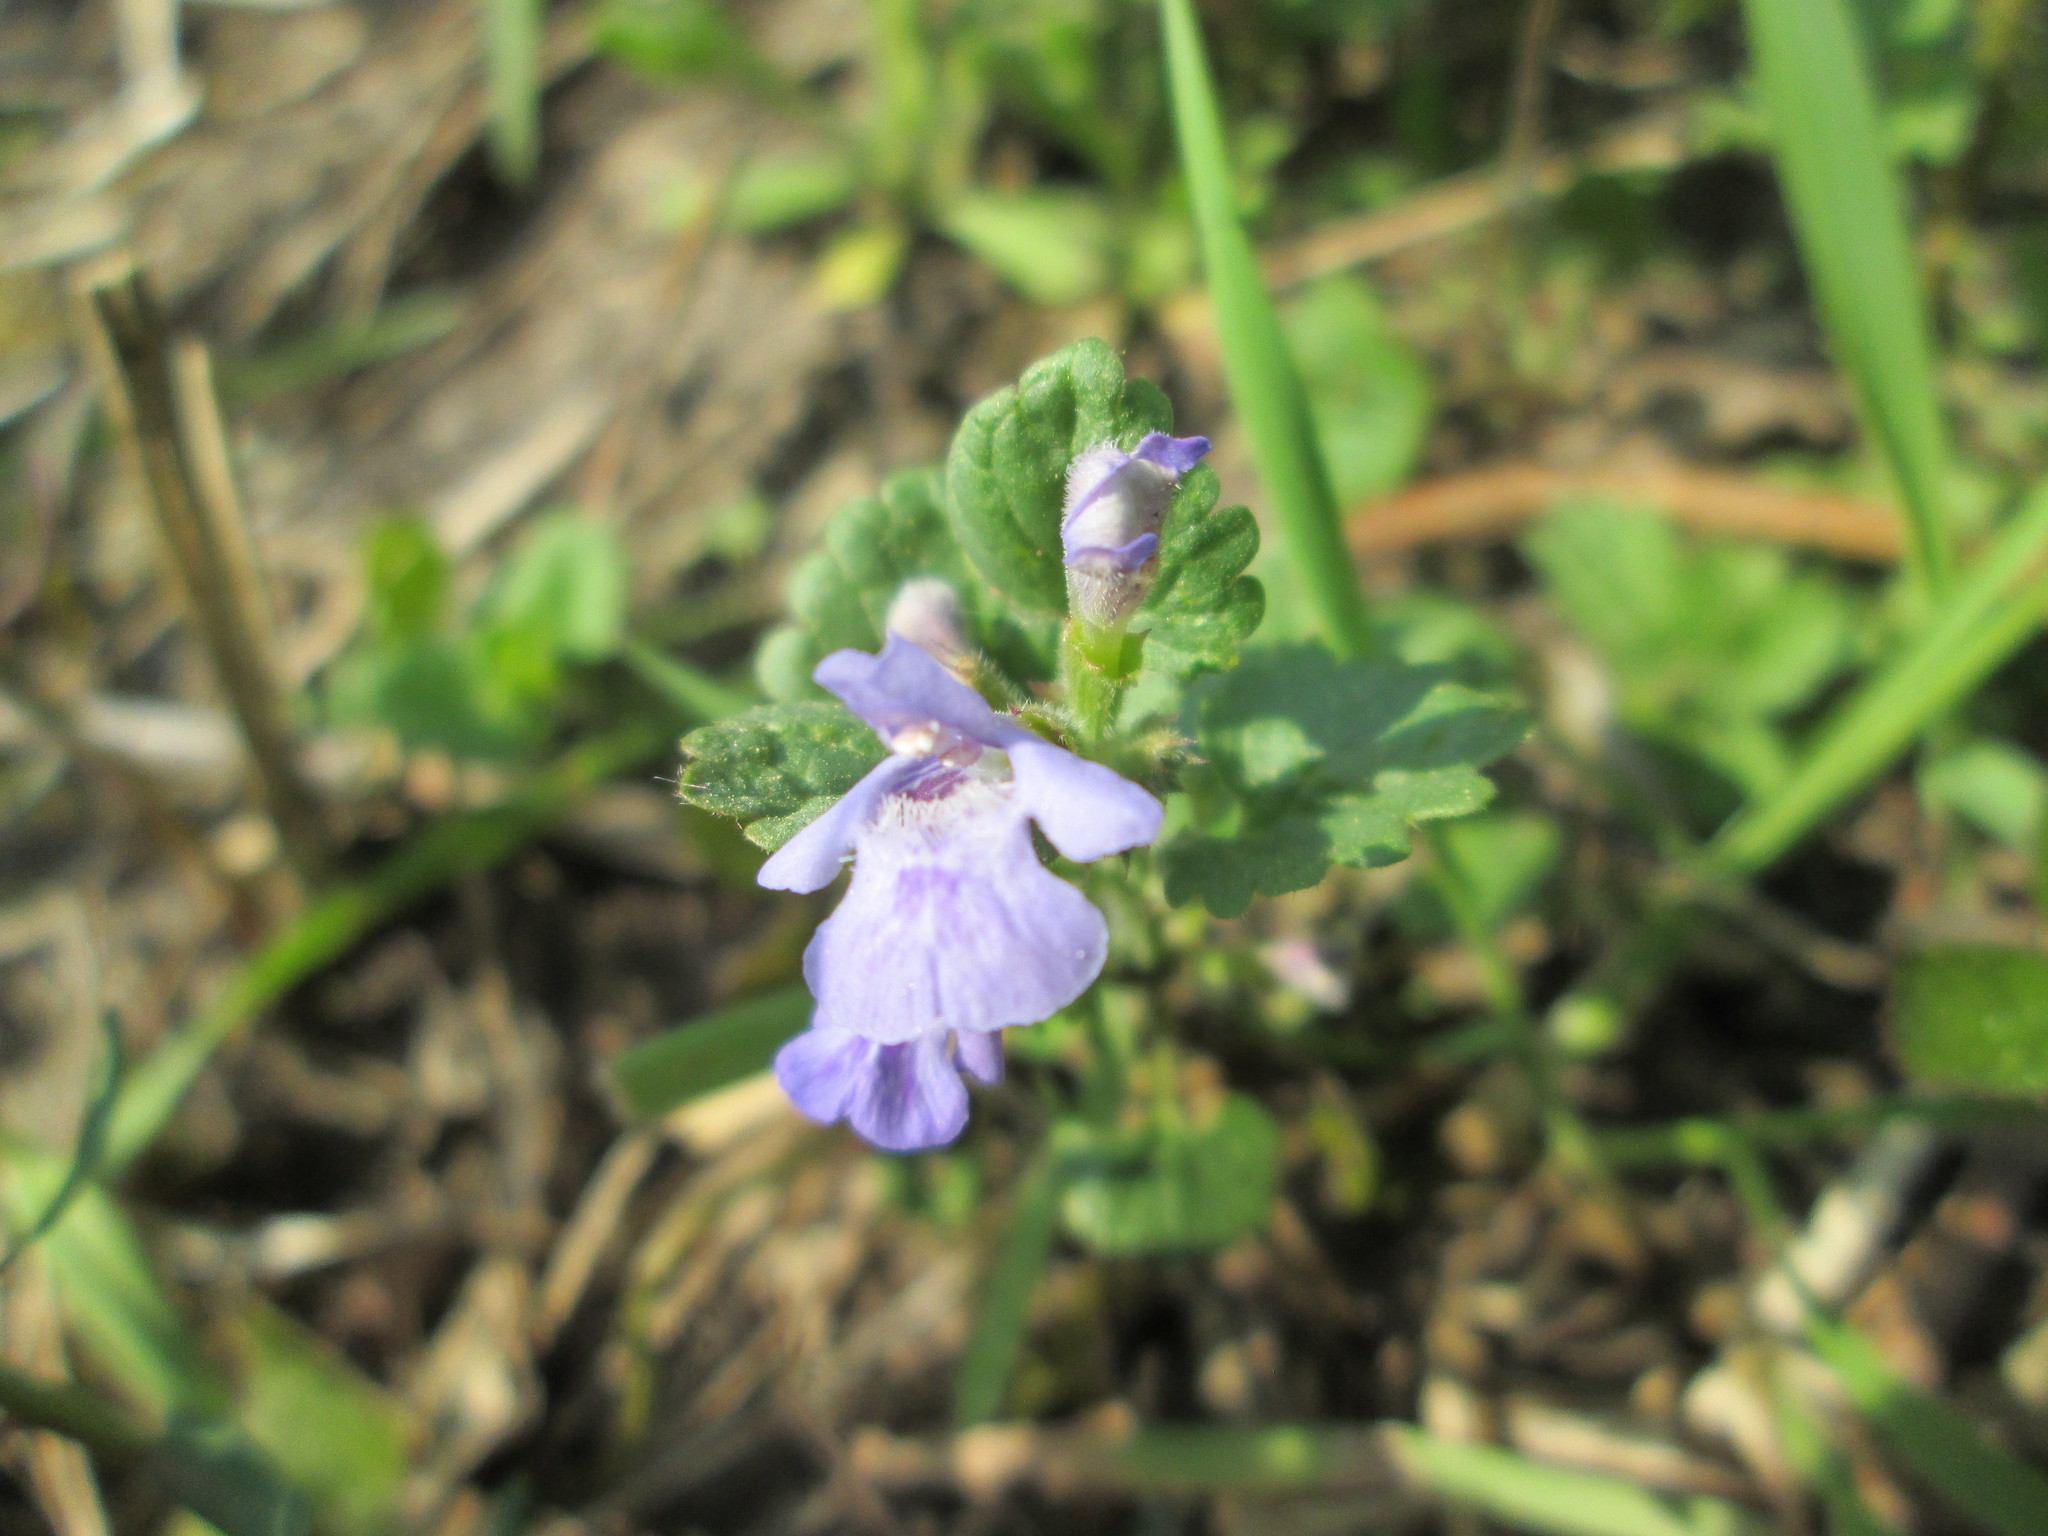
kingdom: Plantae
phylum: Tracheophyta
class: Magnoliopsida
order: Lamiales
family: Lamiaceae
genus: Glechoma
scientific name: Glechoma hederacea
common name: Ground ivy
